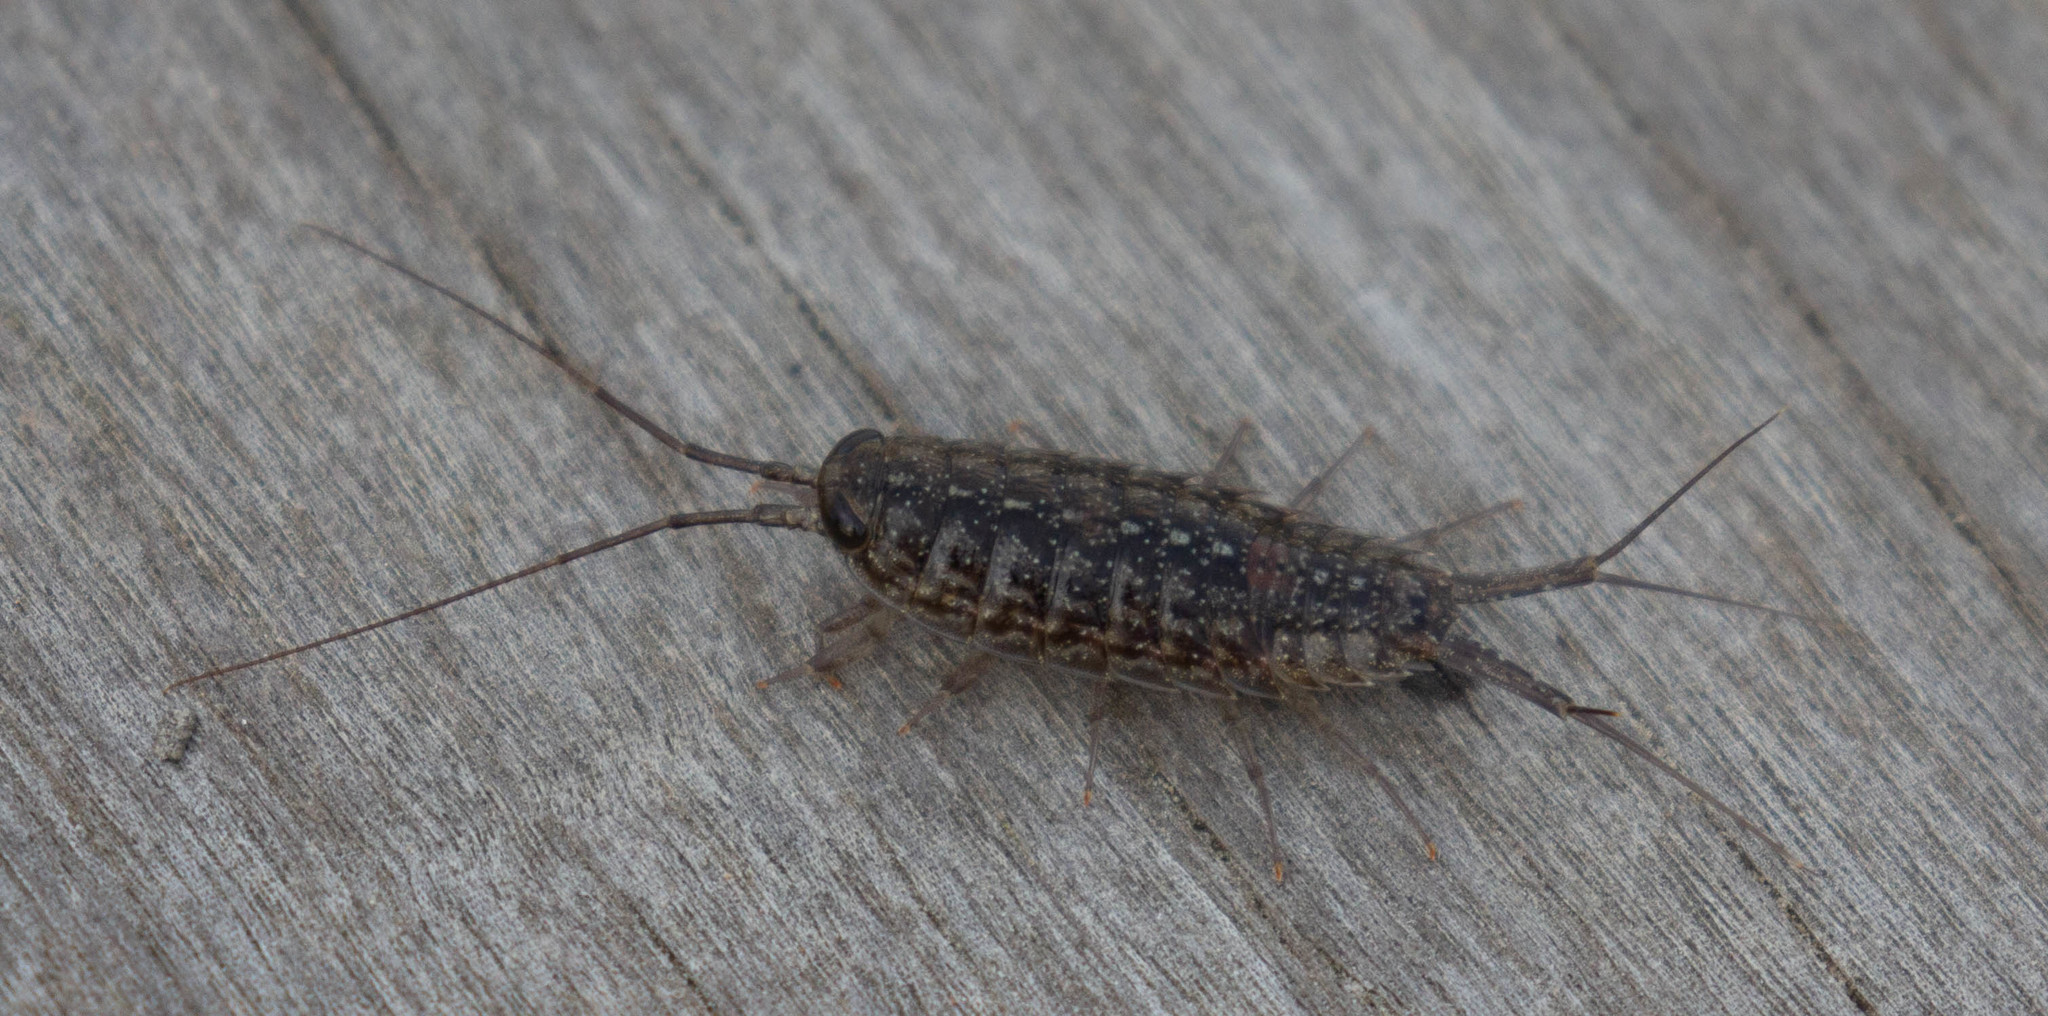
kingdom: Animalia
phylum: Arthropoda
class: Malacostraca
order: Isopoda
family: Ligiidae
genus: Ligia
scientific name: Ligia exotica
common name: Wharf roach
